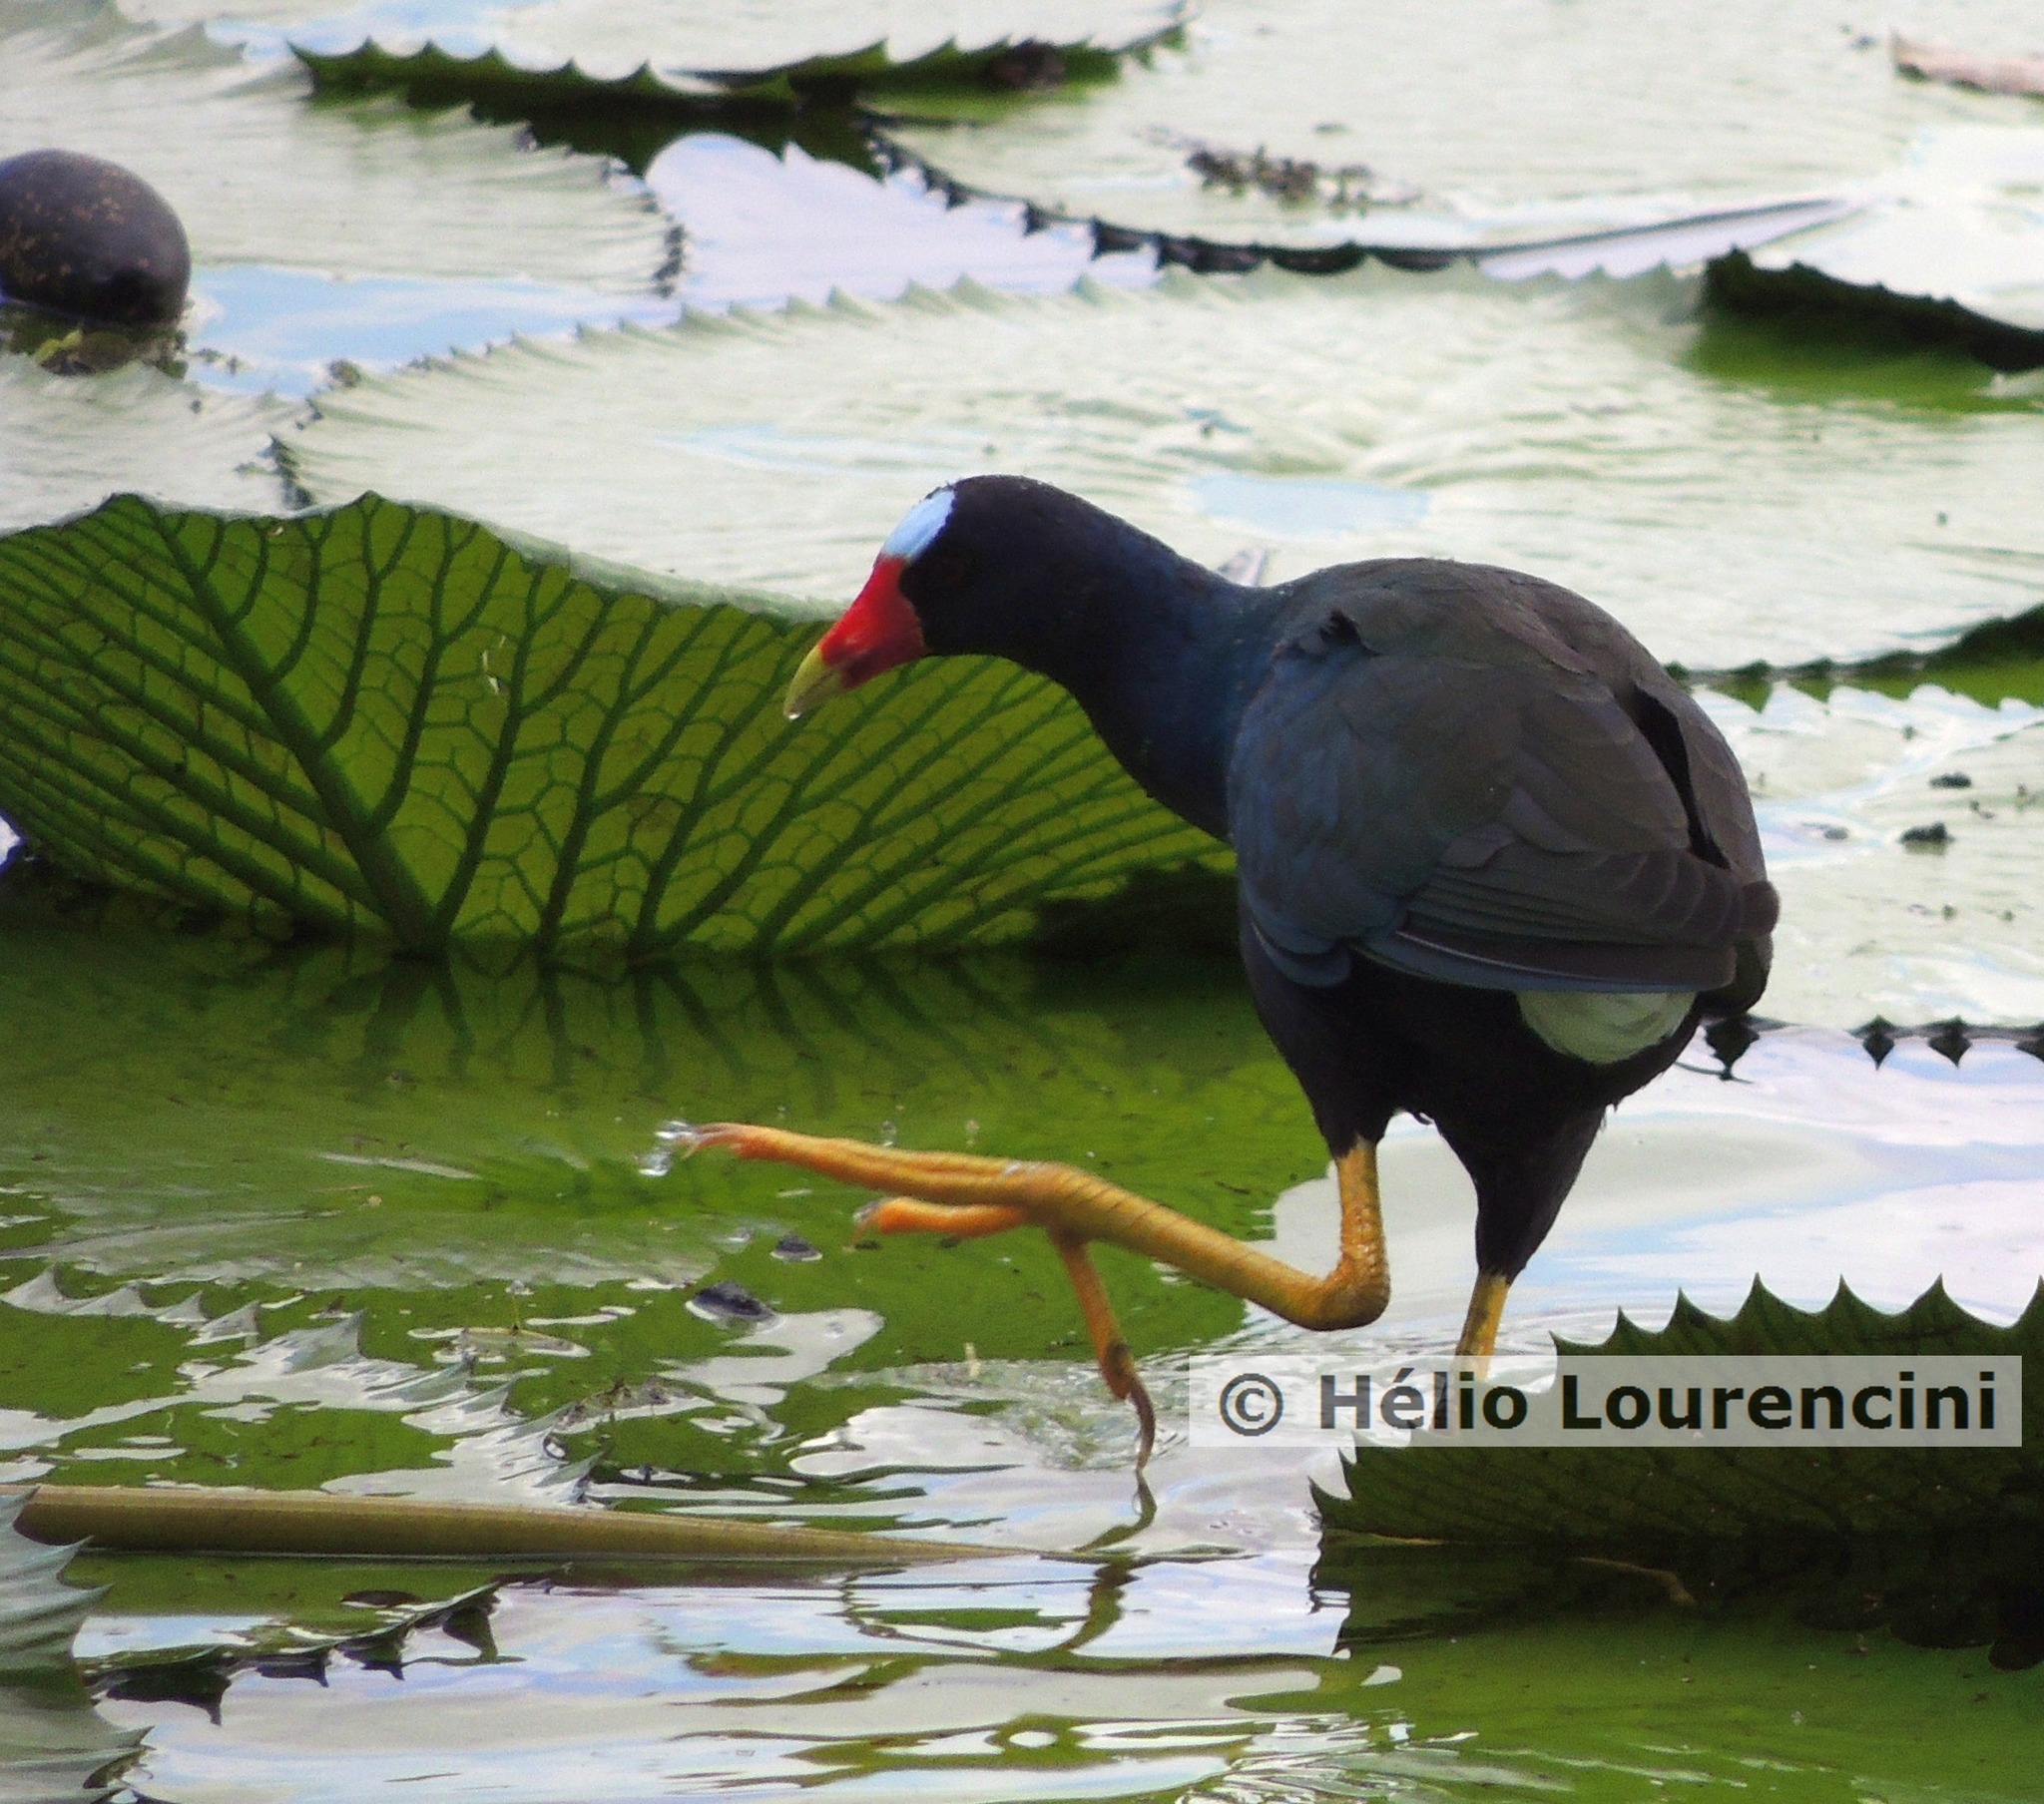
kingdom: Animalia
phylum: Chordata
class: Aves
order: Gruiformes
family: Rallidae
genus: Porphyrio
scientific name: Porphyrio martinica
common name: Purple gallinule
